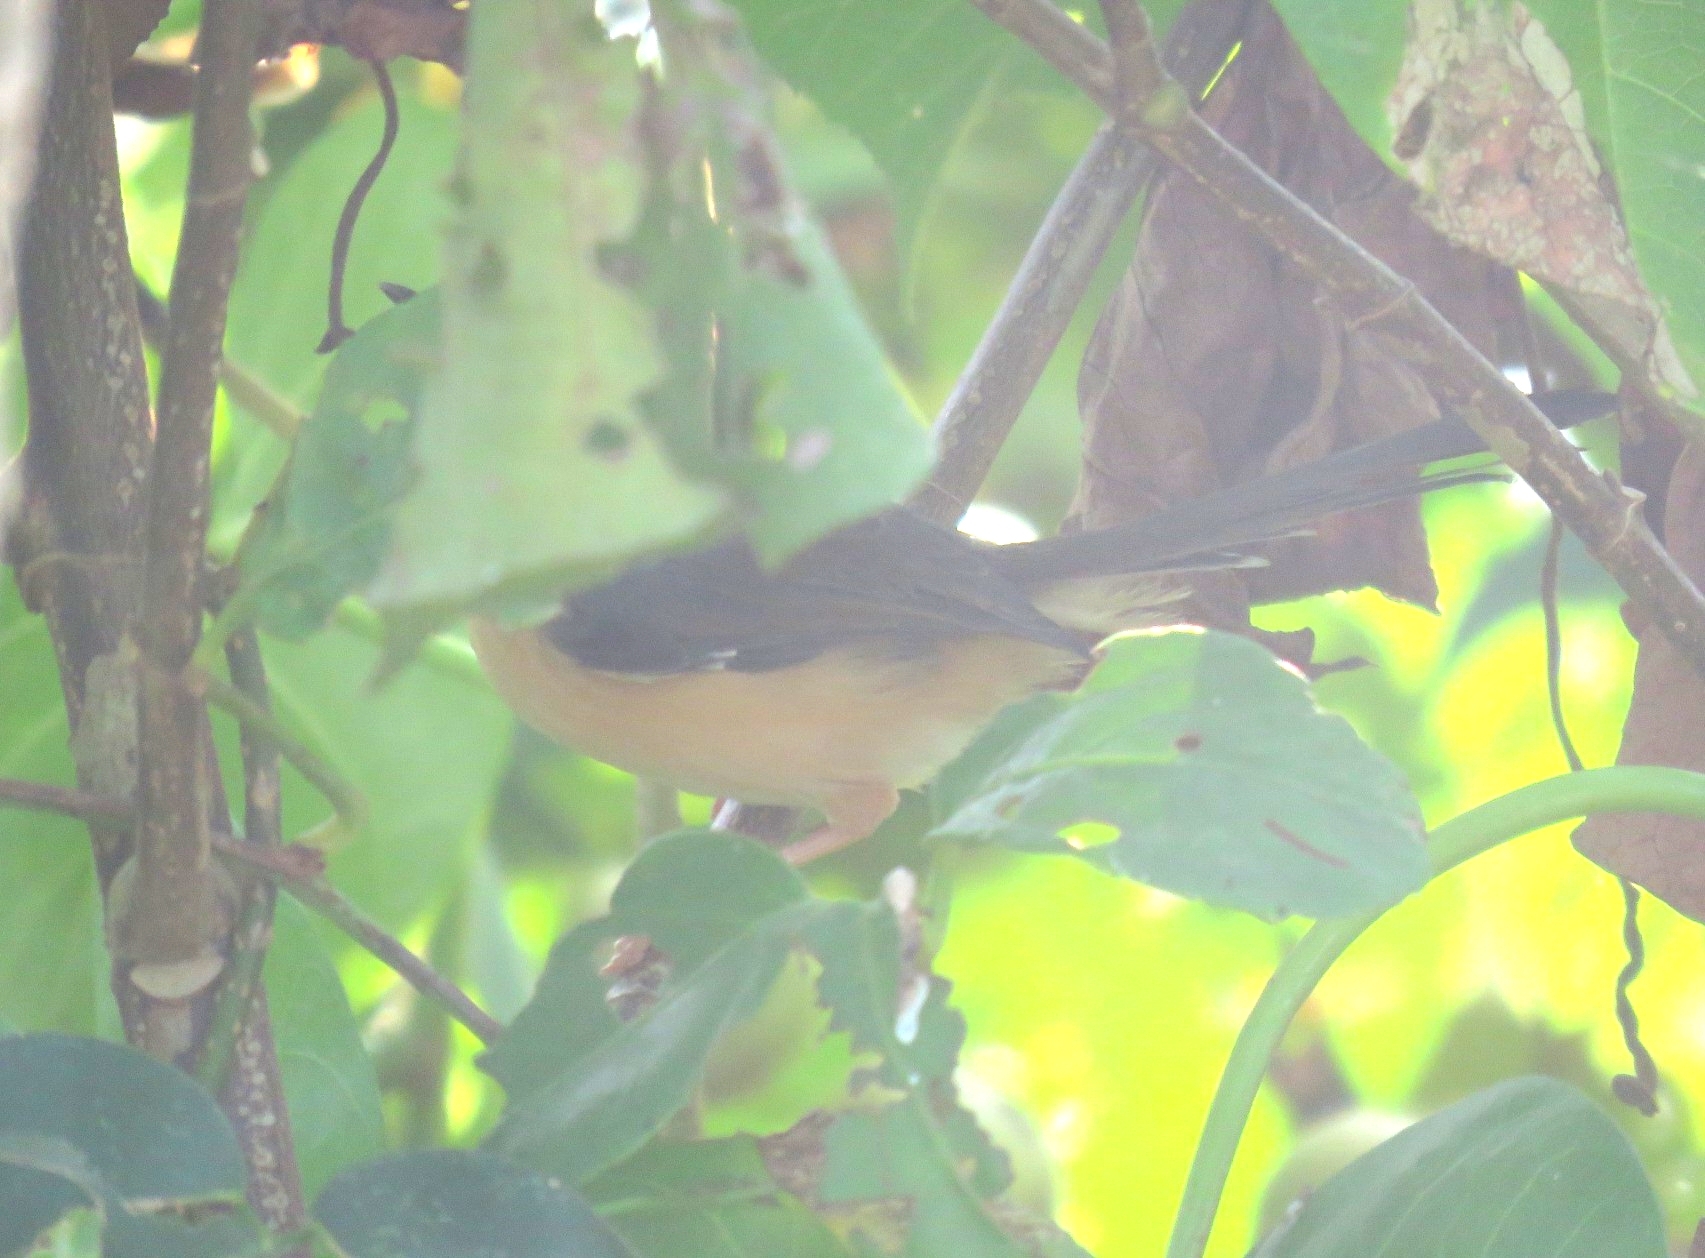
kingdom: Animalia
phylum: Chordata
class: Aves
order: Passeriformes
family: Cisticolidae
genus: Prinia
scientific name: Prinia socialis
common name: Ashy prinia
